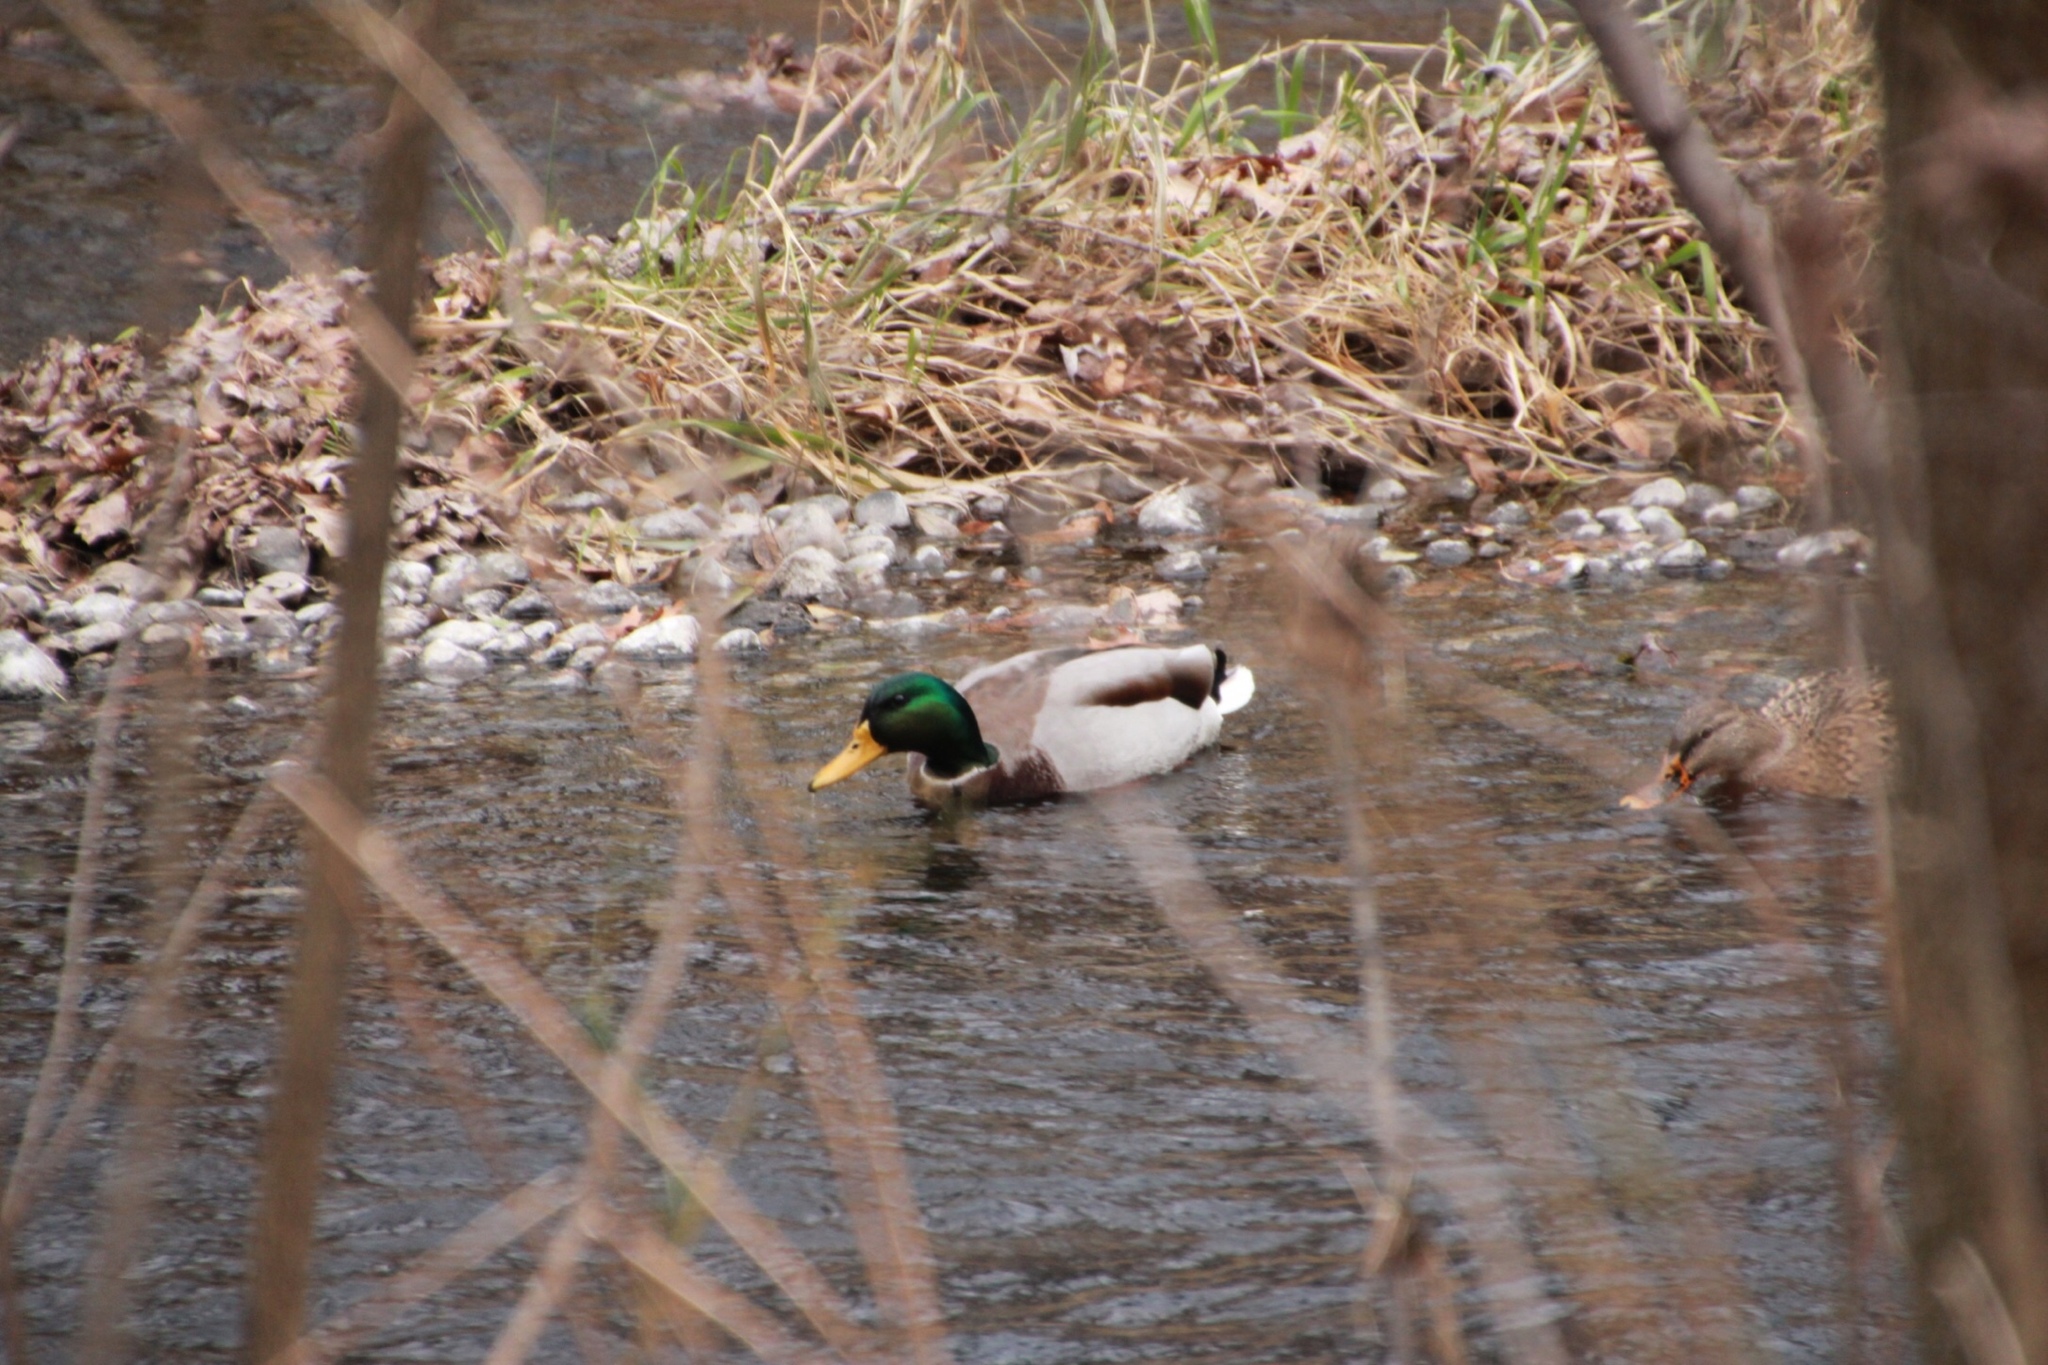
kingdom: Animalia
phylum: Chordata
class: Aves
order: Anseriformes
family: Anatidae
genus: Anas
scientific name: Anas platyrhynchos
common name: Mallard
